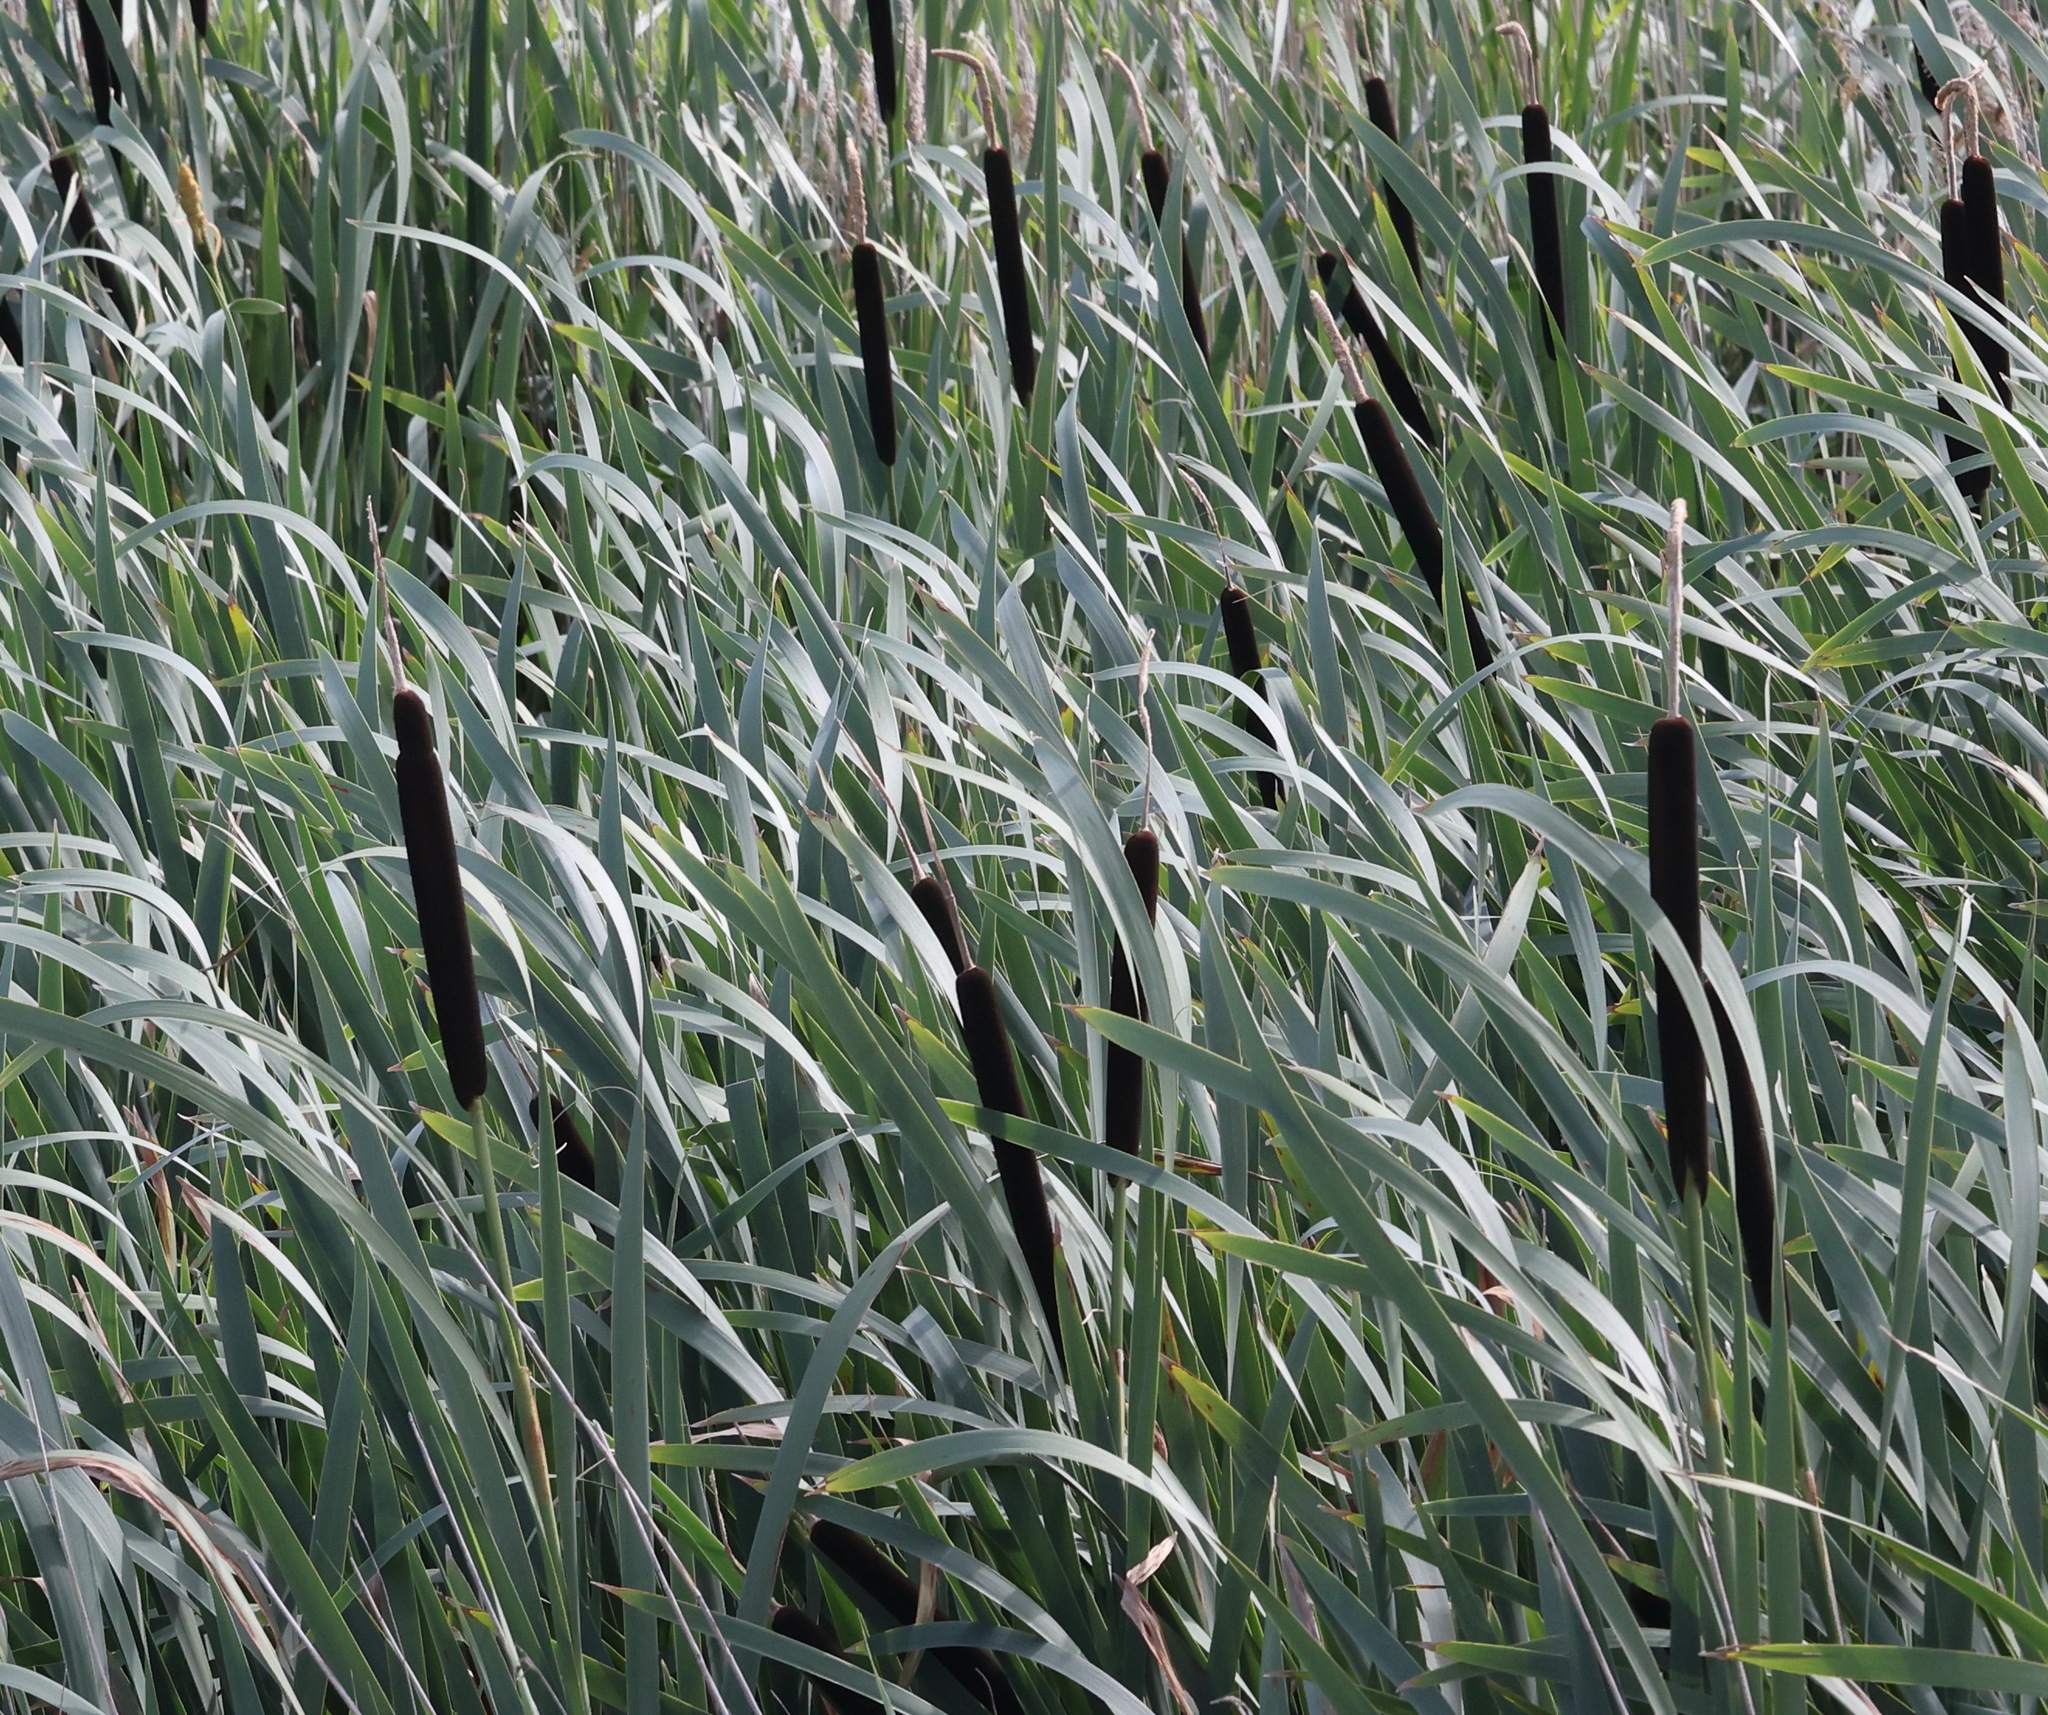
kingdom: Plantae
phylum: Tracheophyta
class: Liliopsida
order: Poales
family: Typhaceae
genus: Typha
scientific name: Typha latifolia
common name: Broadleaf cattail
